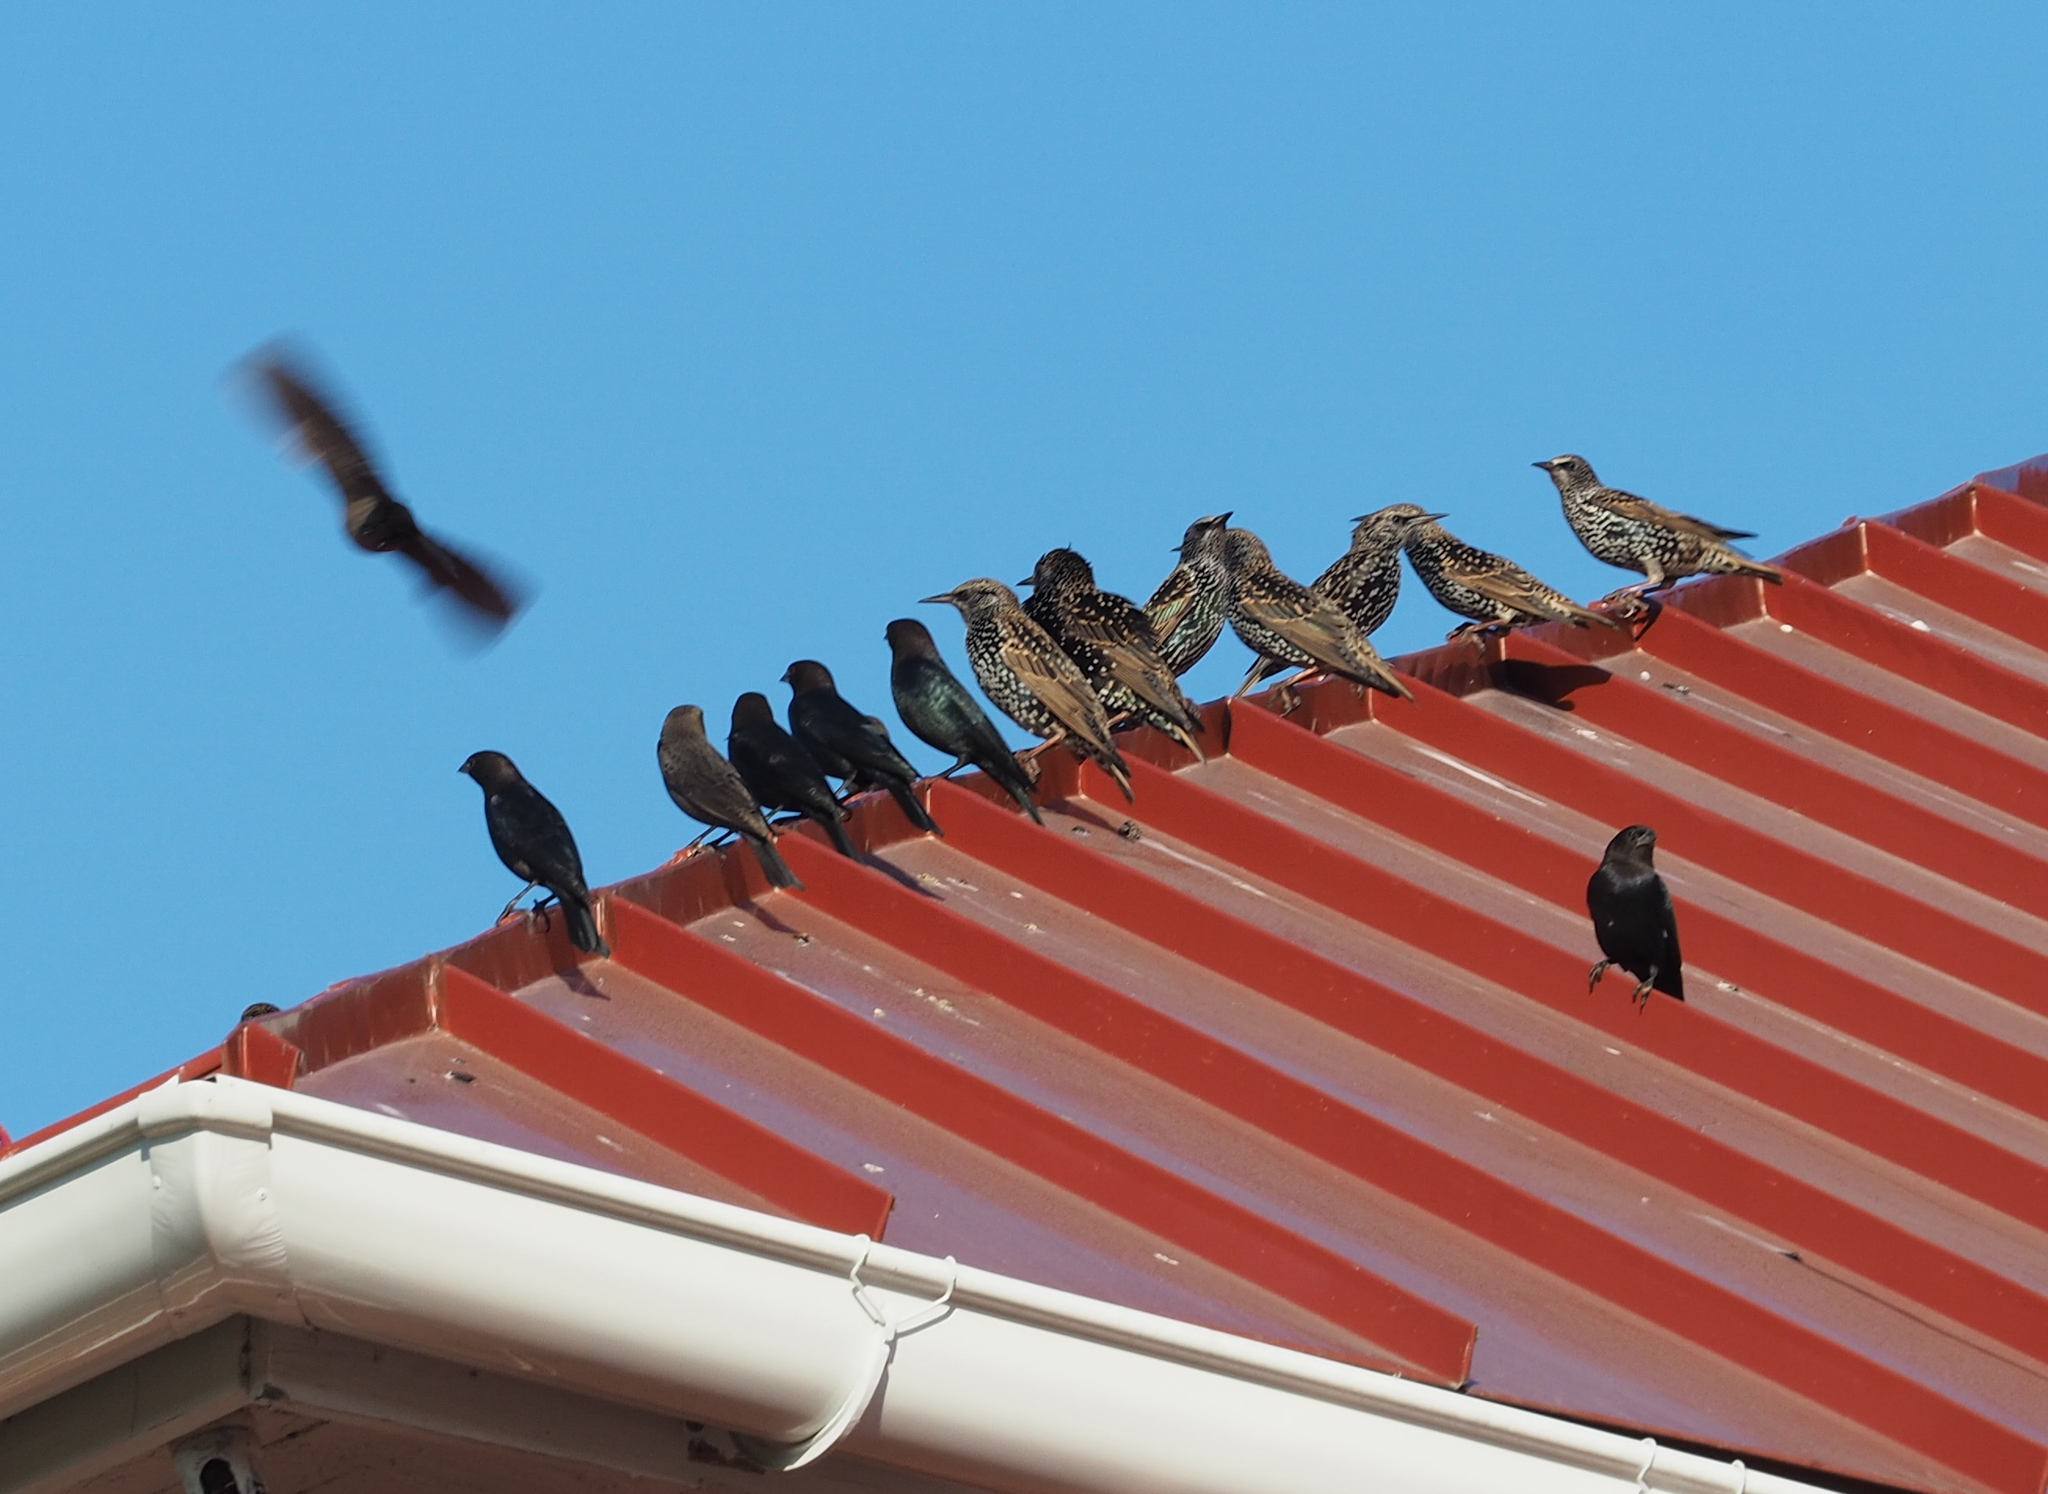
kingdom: Animalia
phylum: Chordata
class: Aves
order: Passeriformes
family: Sturnidae
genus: Sturnus
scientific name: Sturnus vulgaris
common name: Common starling
